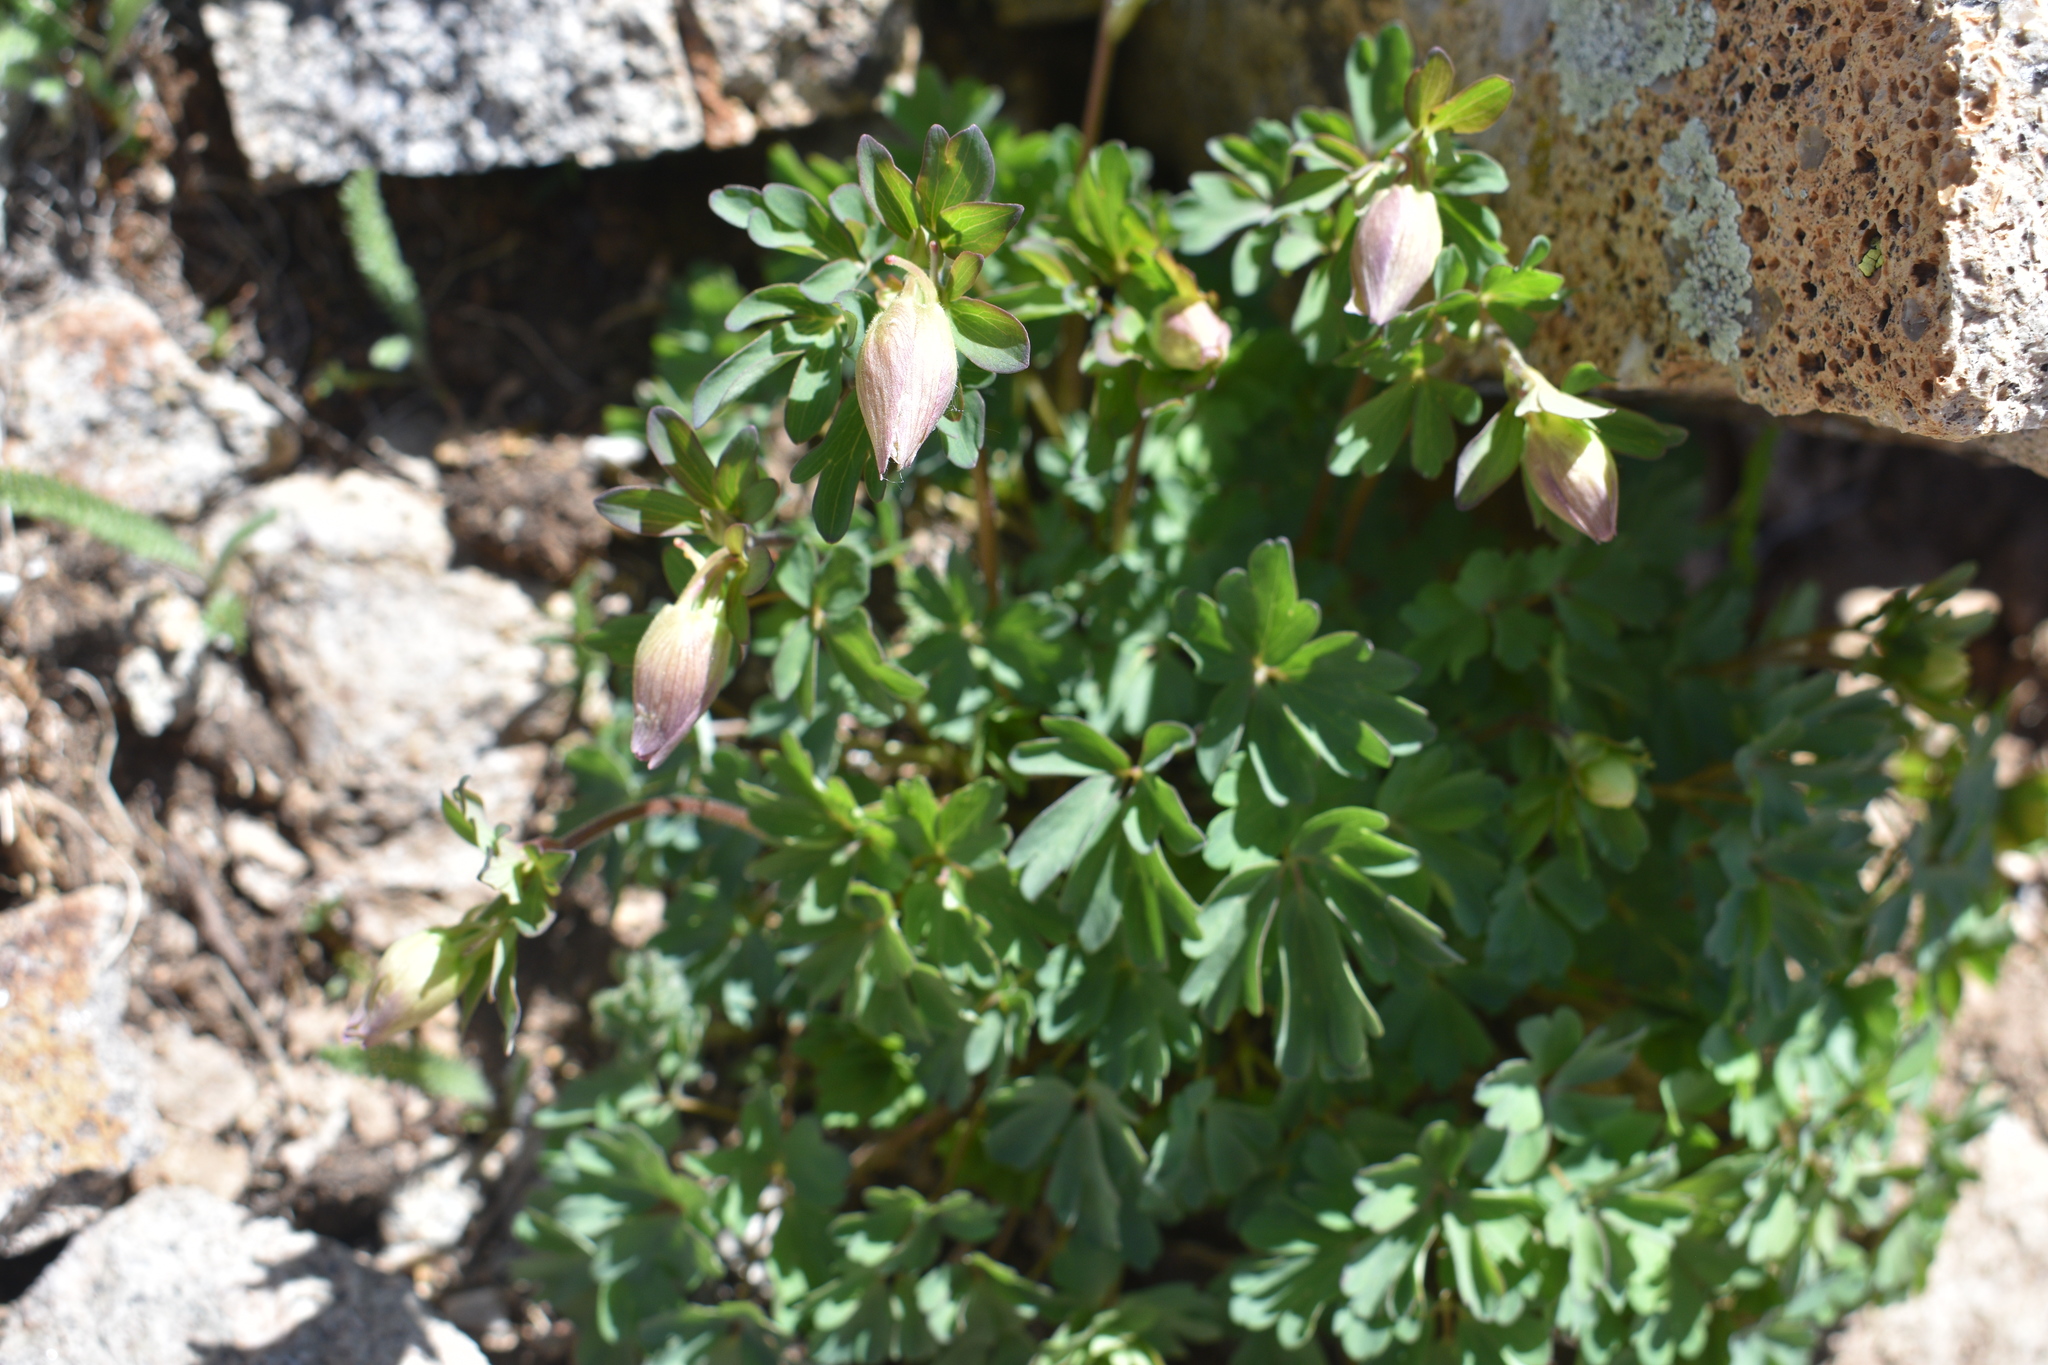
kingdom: Plantae
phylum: Tracheophyta
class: Magnoliopsida
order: Ranunculales
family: Ranunculaceae
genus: Aquilegia
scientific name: Aquilegia coerulea
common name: Rocky mountain columbine
